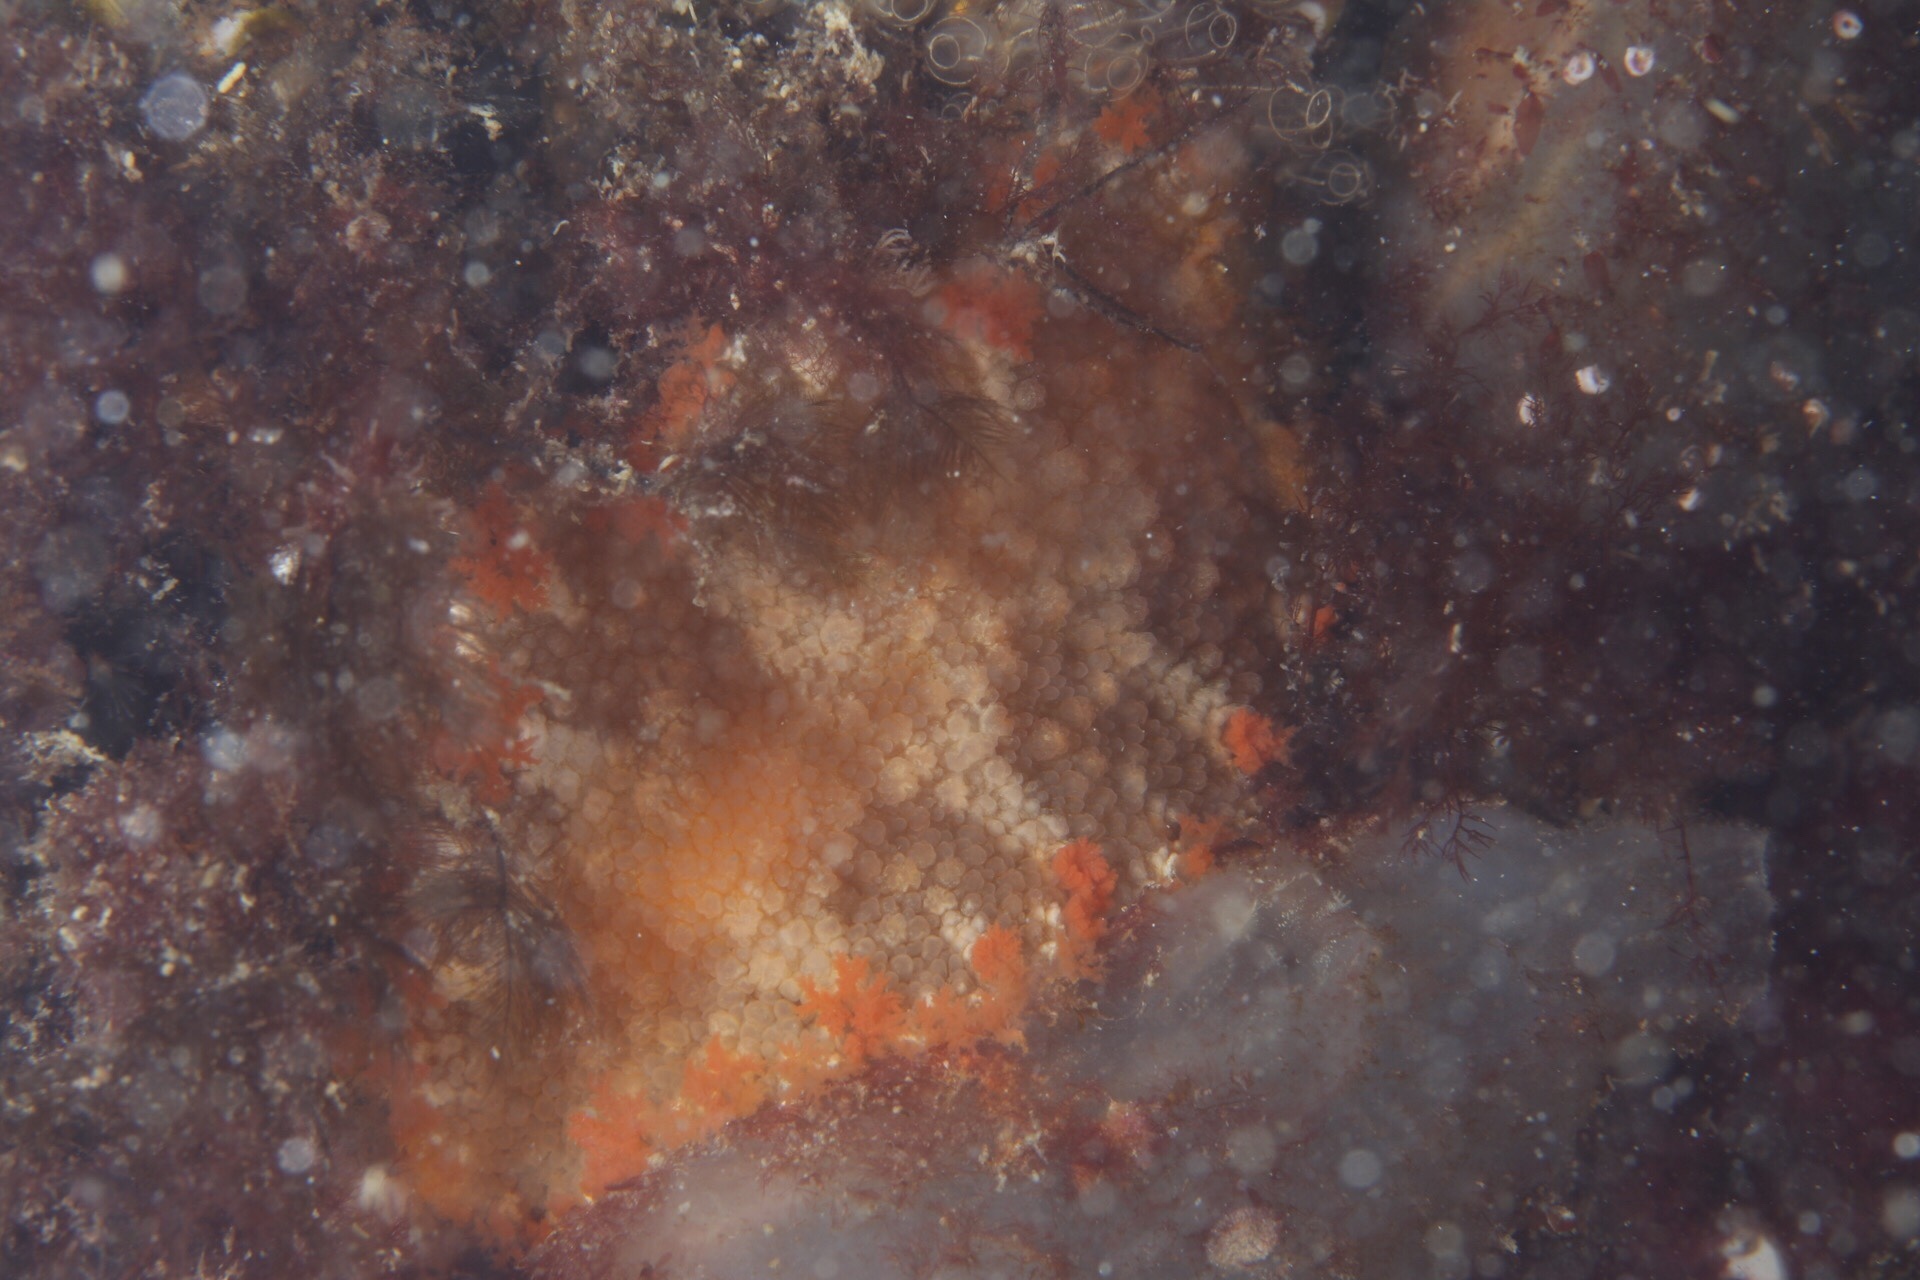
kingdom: Animalia
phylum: Mollusca
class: Gastropoda
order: Nudibranchia
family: Tritoniidae
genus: Tritonia
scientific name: Tritonia hombergii
